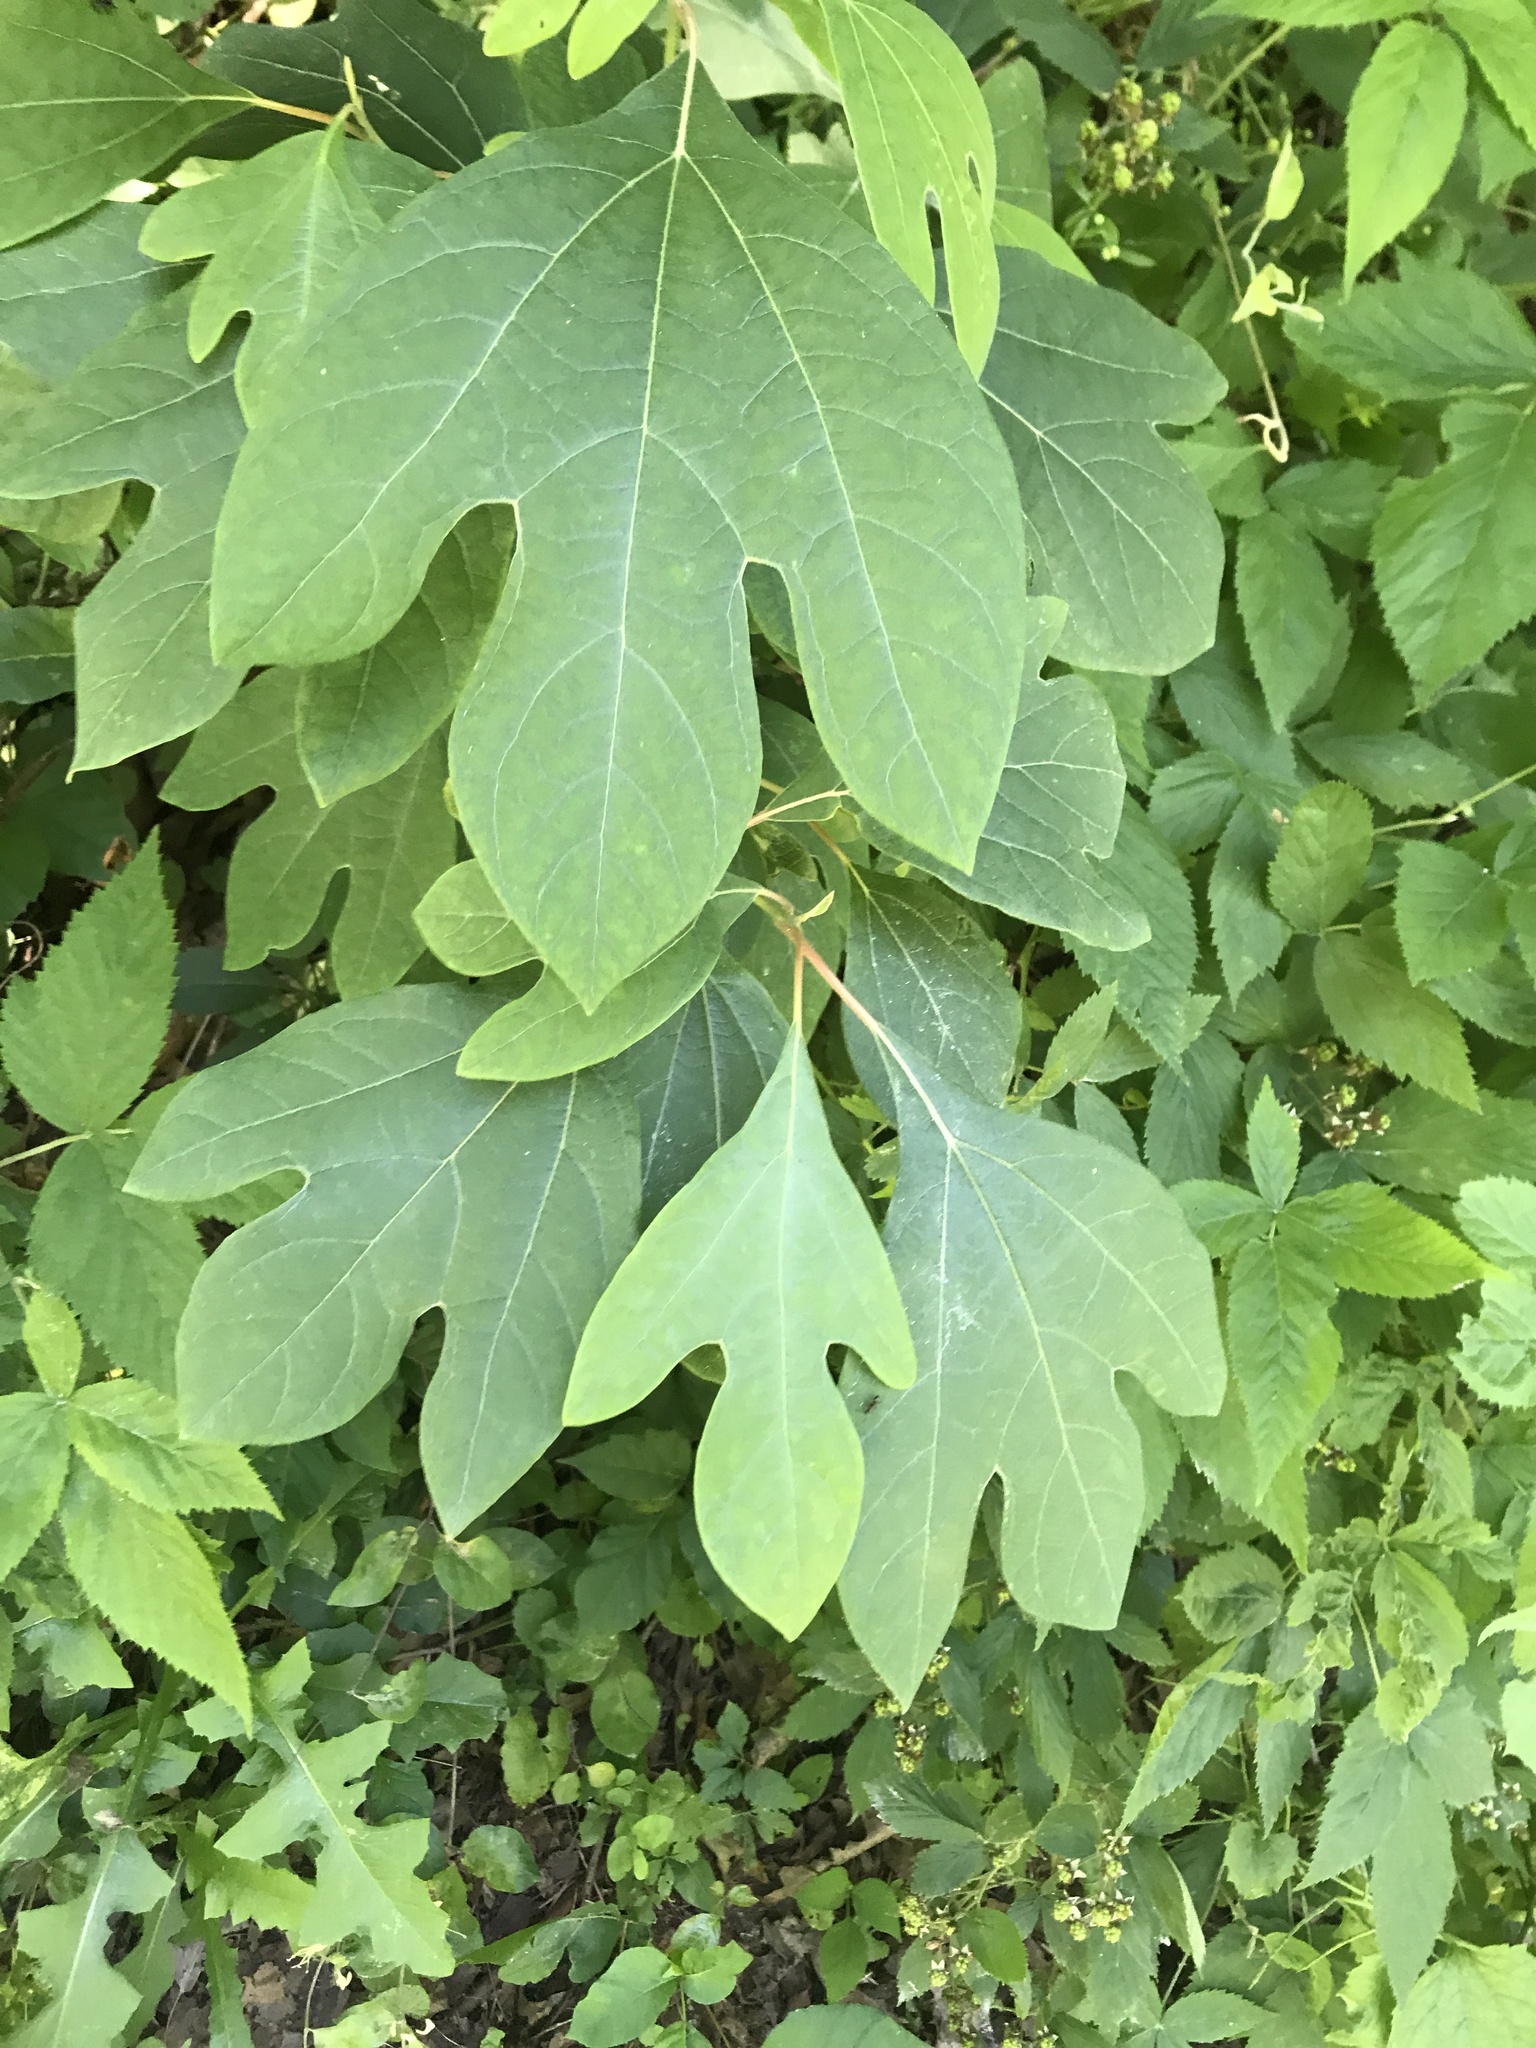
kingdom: Plantae
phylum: Tracheophyta
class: Magnoliopsida
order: Laurales
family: Lauraceae
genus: Sassafras
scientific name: Sassafras albidum
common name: Sassafras
